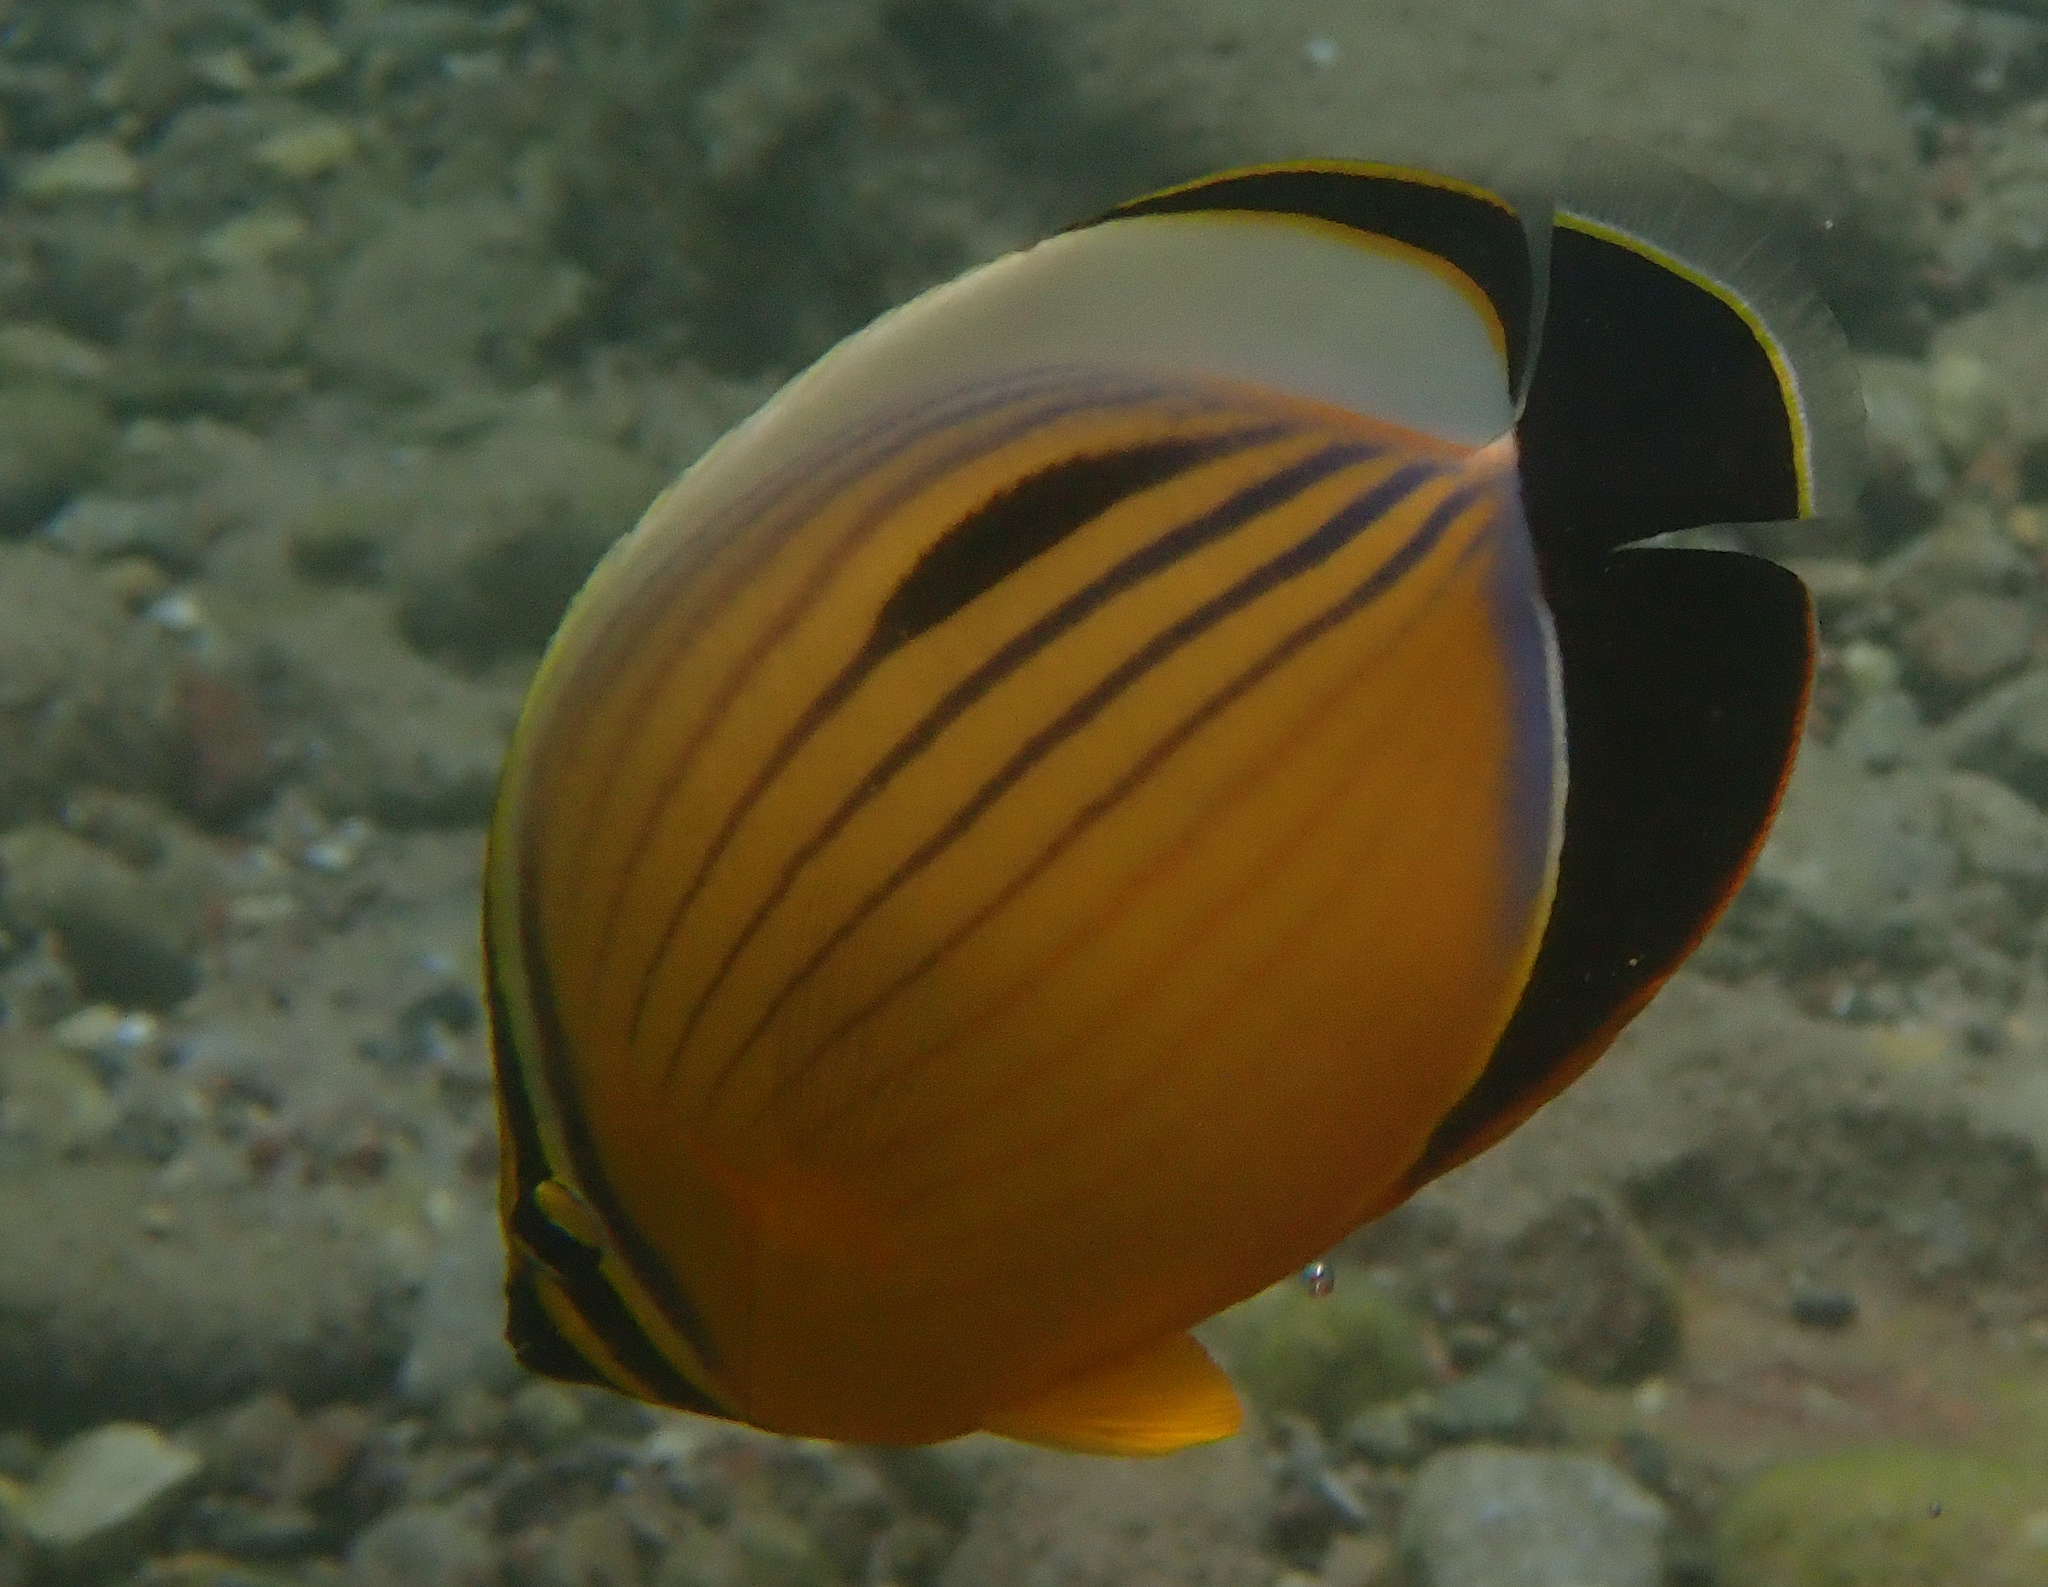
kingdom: Animalia
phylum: Chordata
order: Perciformes
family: Chaetodontidae
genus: Chaetodon
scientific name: Chaetodon austriacus
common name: Exquisite butterflyfish
